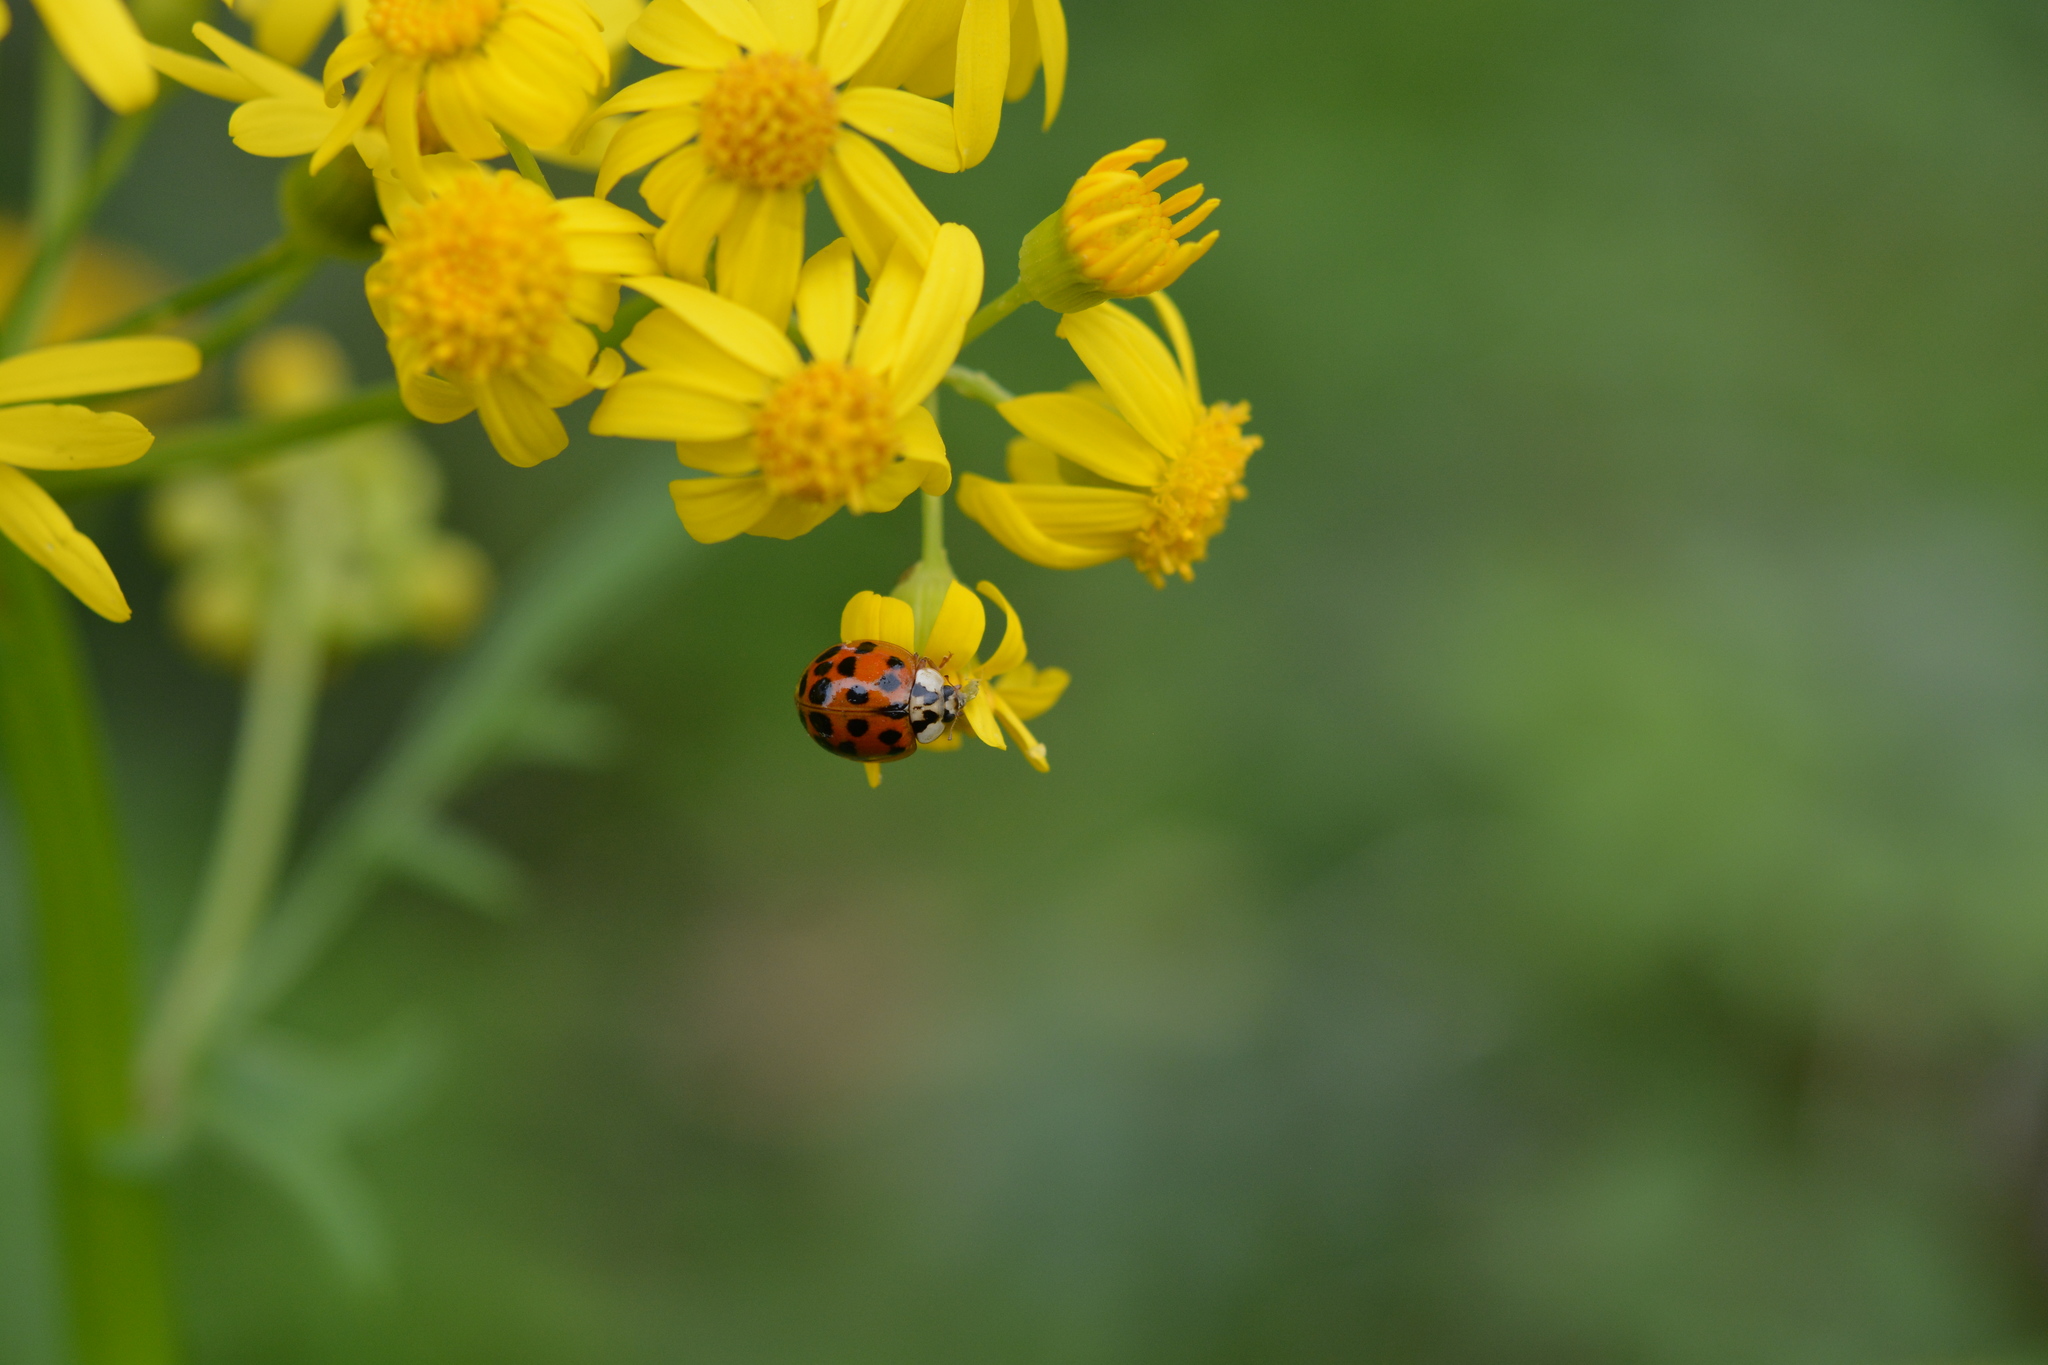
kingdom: Animalia
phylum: Arthropoda
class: Insecta
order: Coleoptera
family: Coccinellidae
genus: Harmonia
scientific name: Harmonia axyridis
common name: Harlequin ladybird
